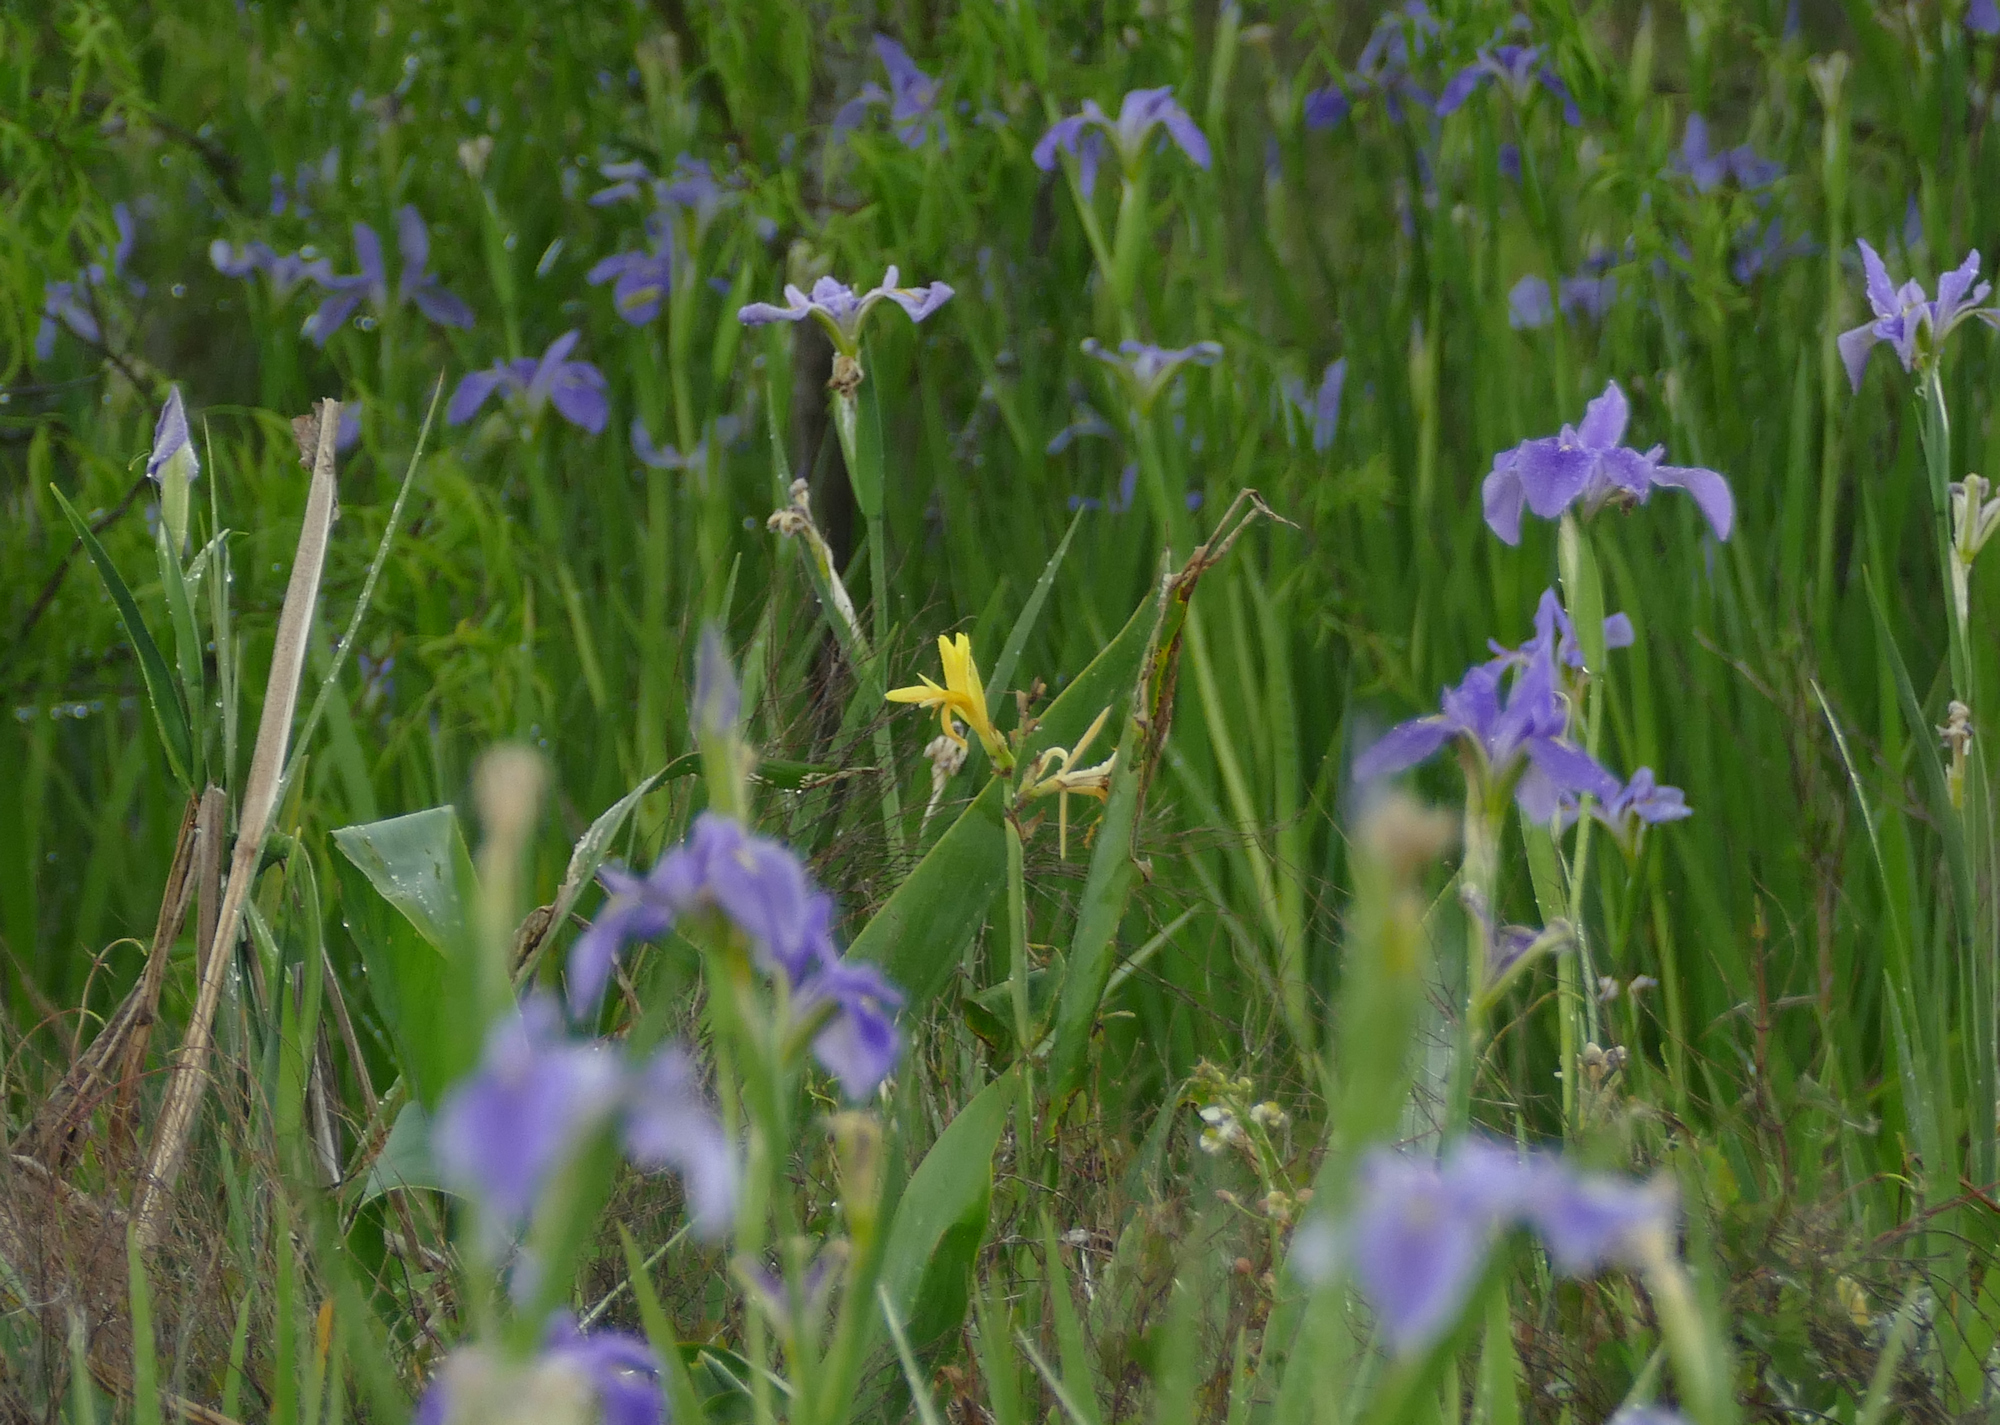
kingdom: Plantae
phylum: Tracheophyta
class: Liliopsida
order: Asparagales
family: Iridaceae
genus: Iris
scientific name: Iris hexagona
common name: Carolina iris
